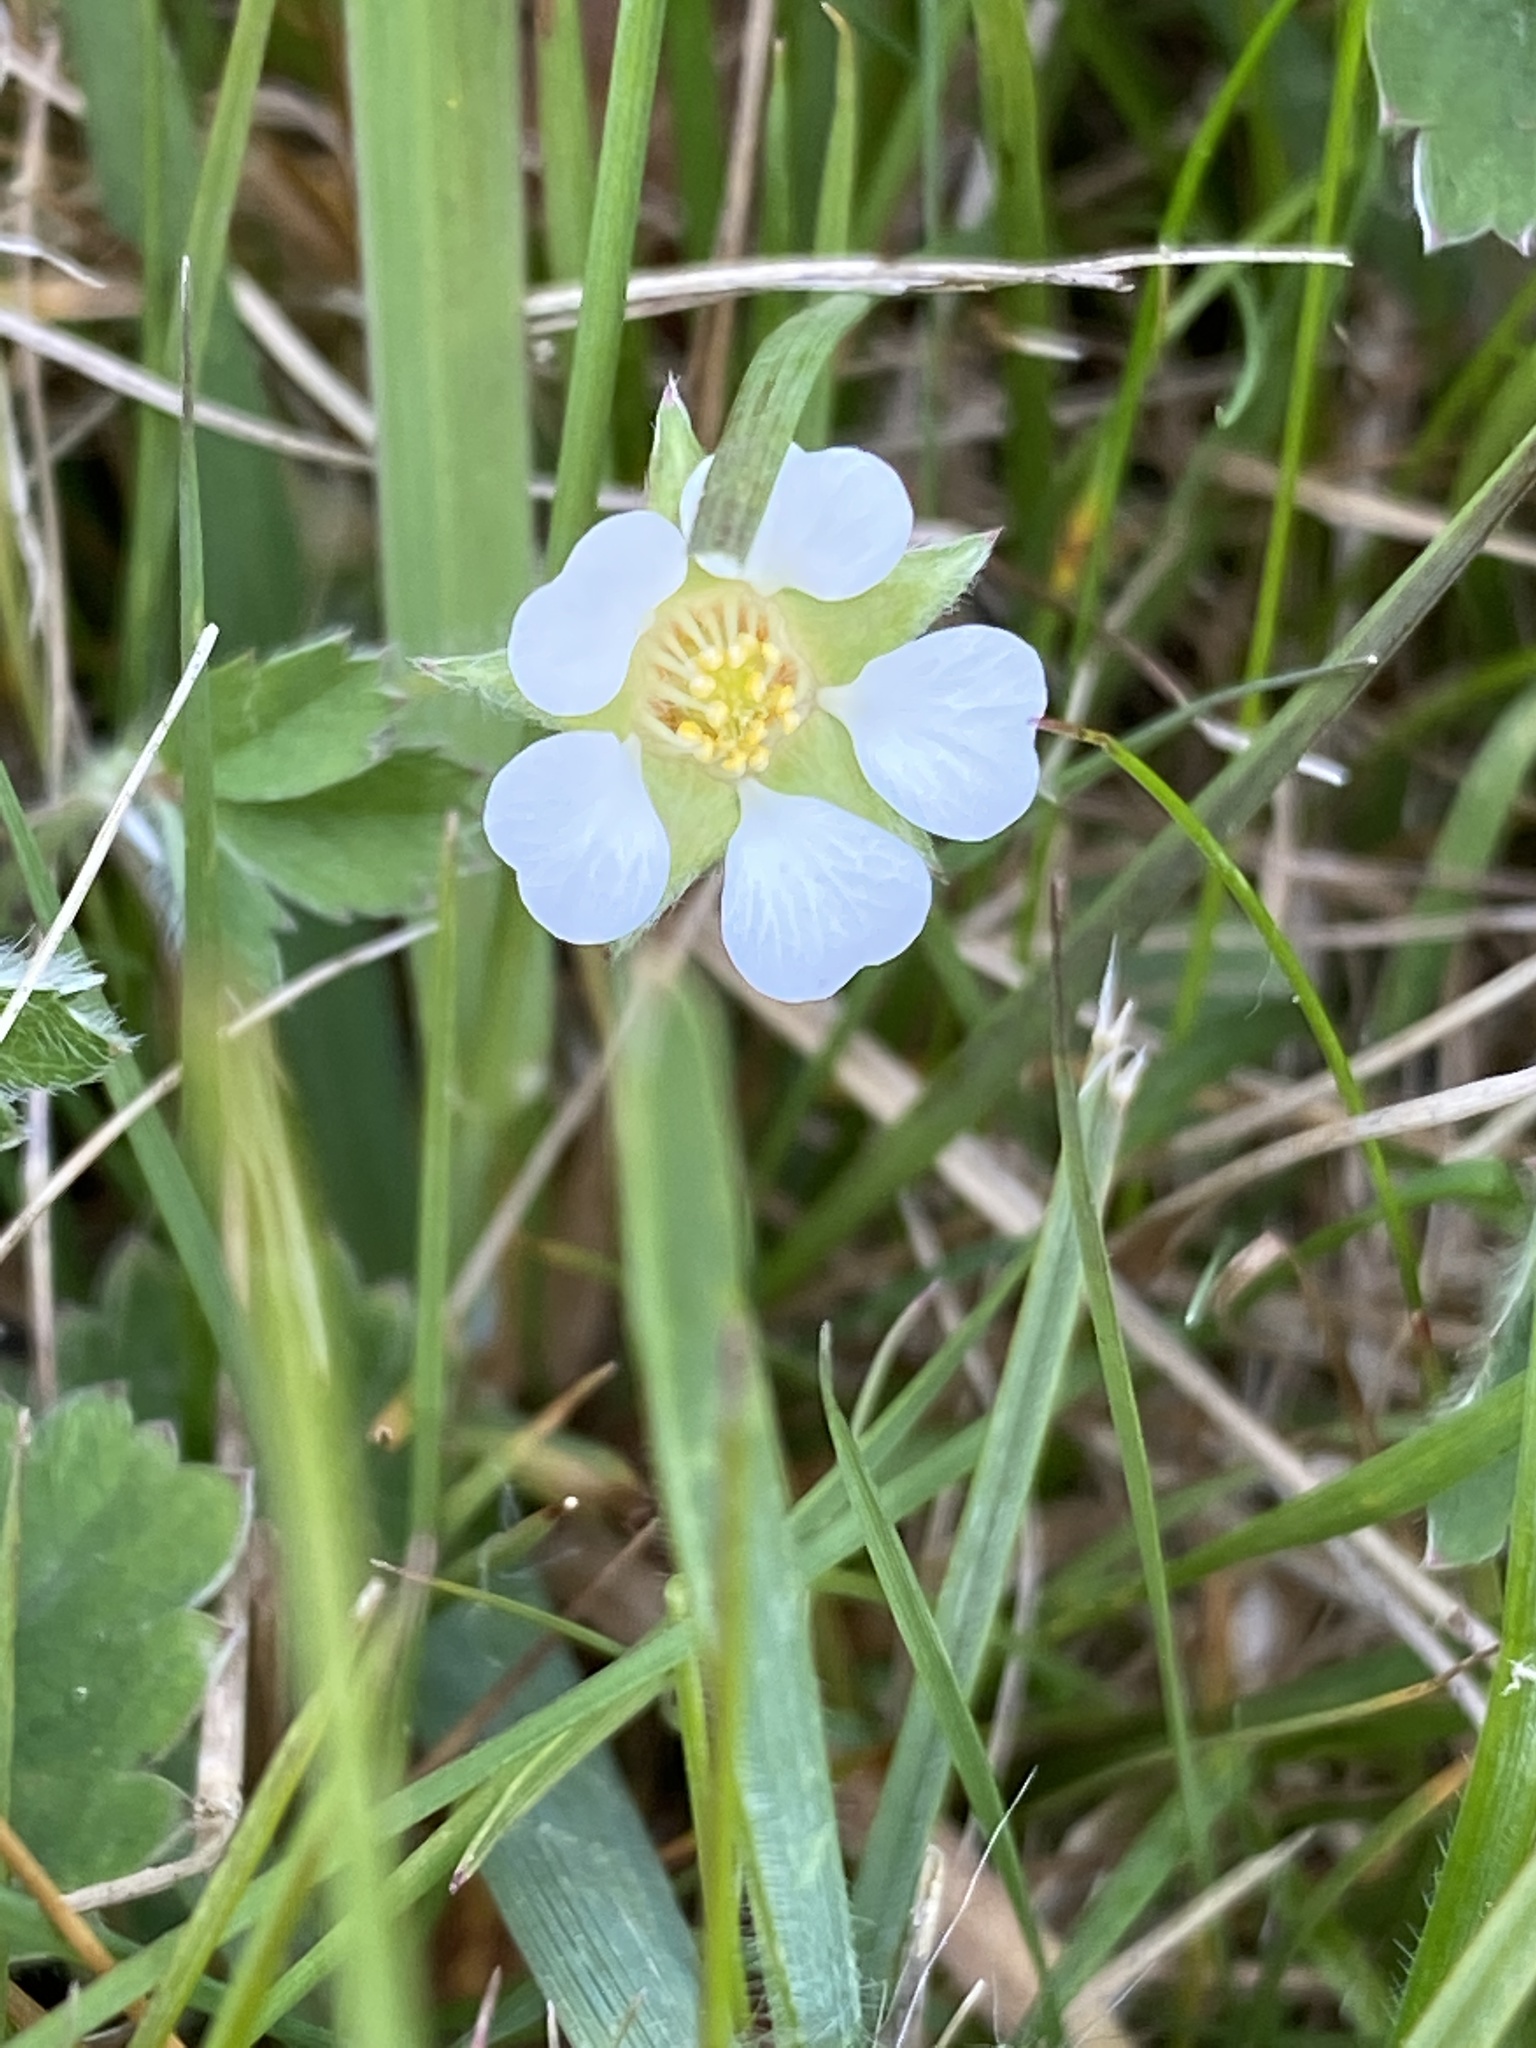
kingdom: Plantae
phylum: Tracheophyta
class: Magnoliopsida
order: Rosales
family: Rosaceae
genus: Potentilla
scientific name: Potentilla sterilis
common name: Barren strawberry
